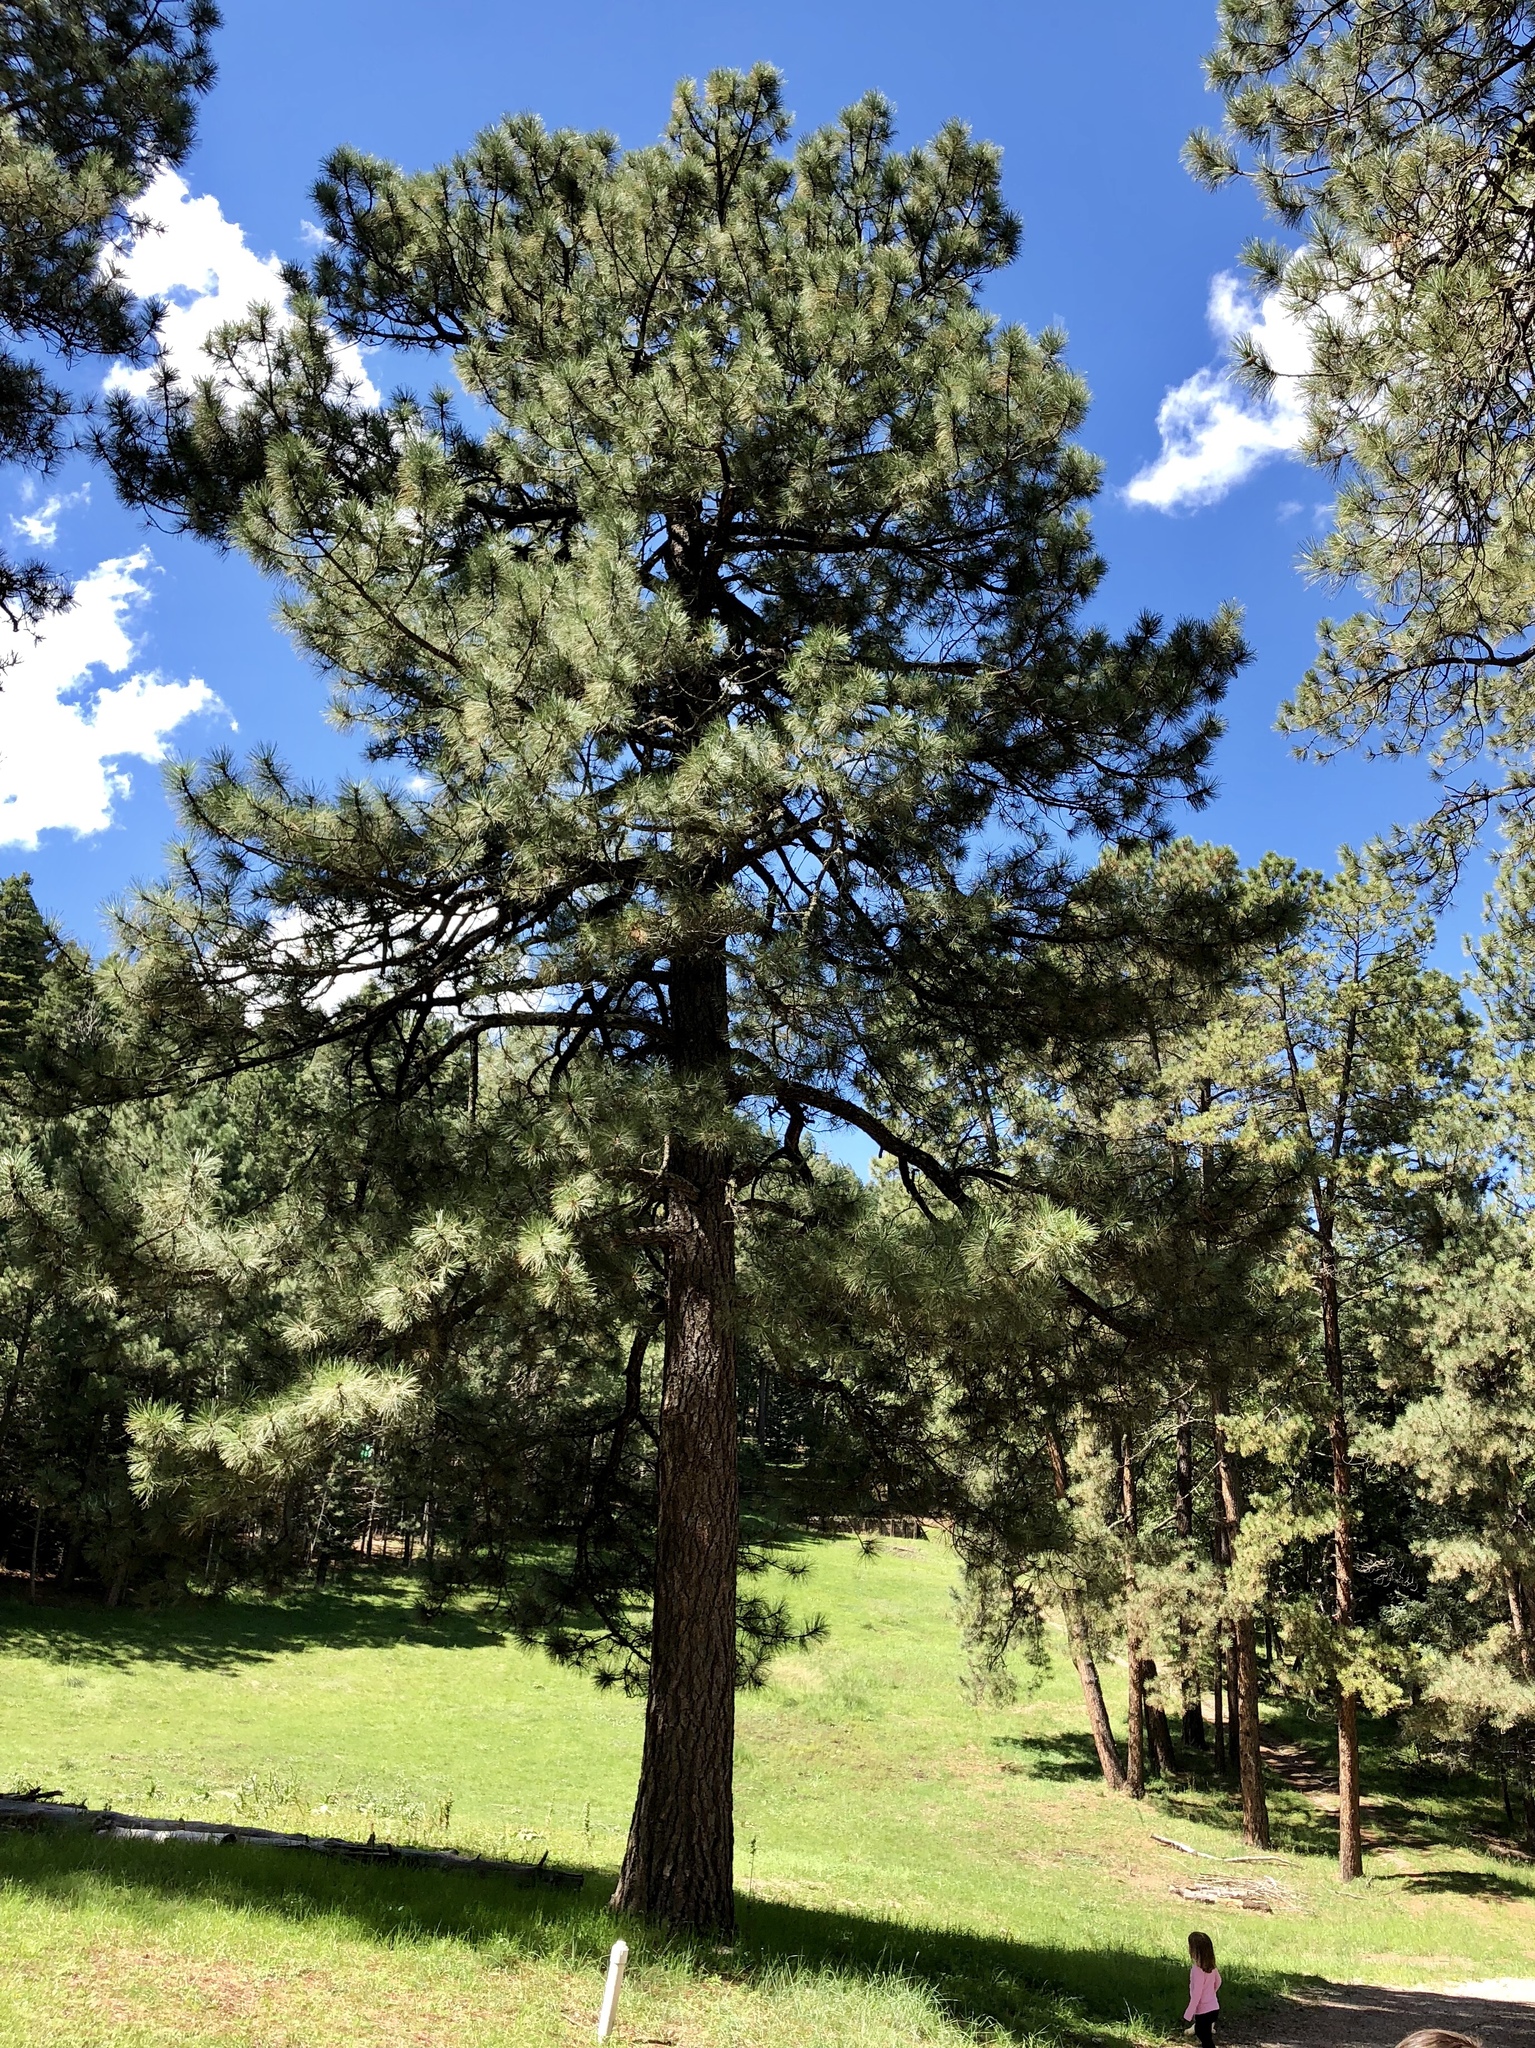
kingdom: Plantae
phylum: Tracheophyta
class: Pinopsida
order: Pinales
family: Pinaceae
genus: Pinus
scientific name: Pinus ponderosa
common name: Western yellow-pine
